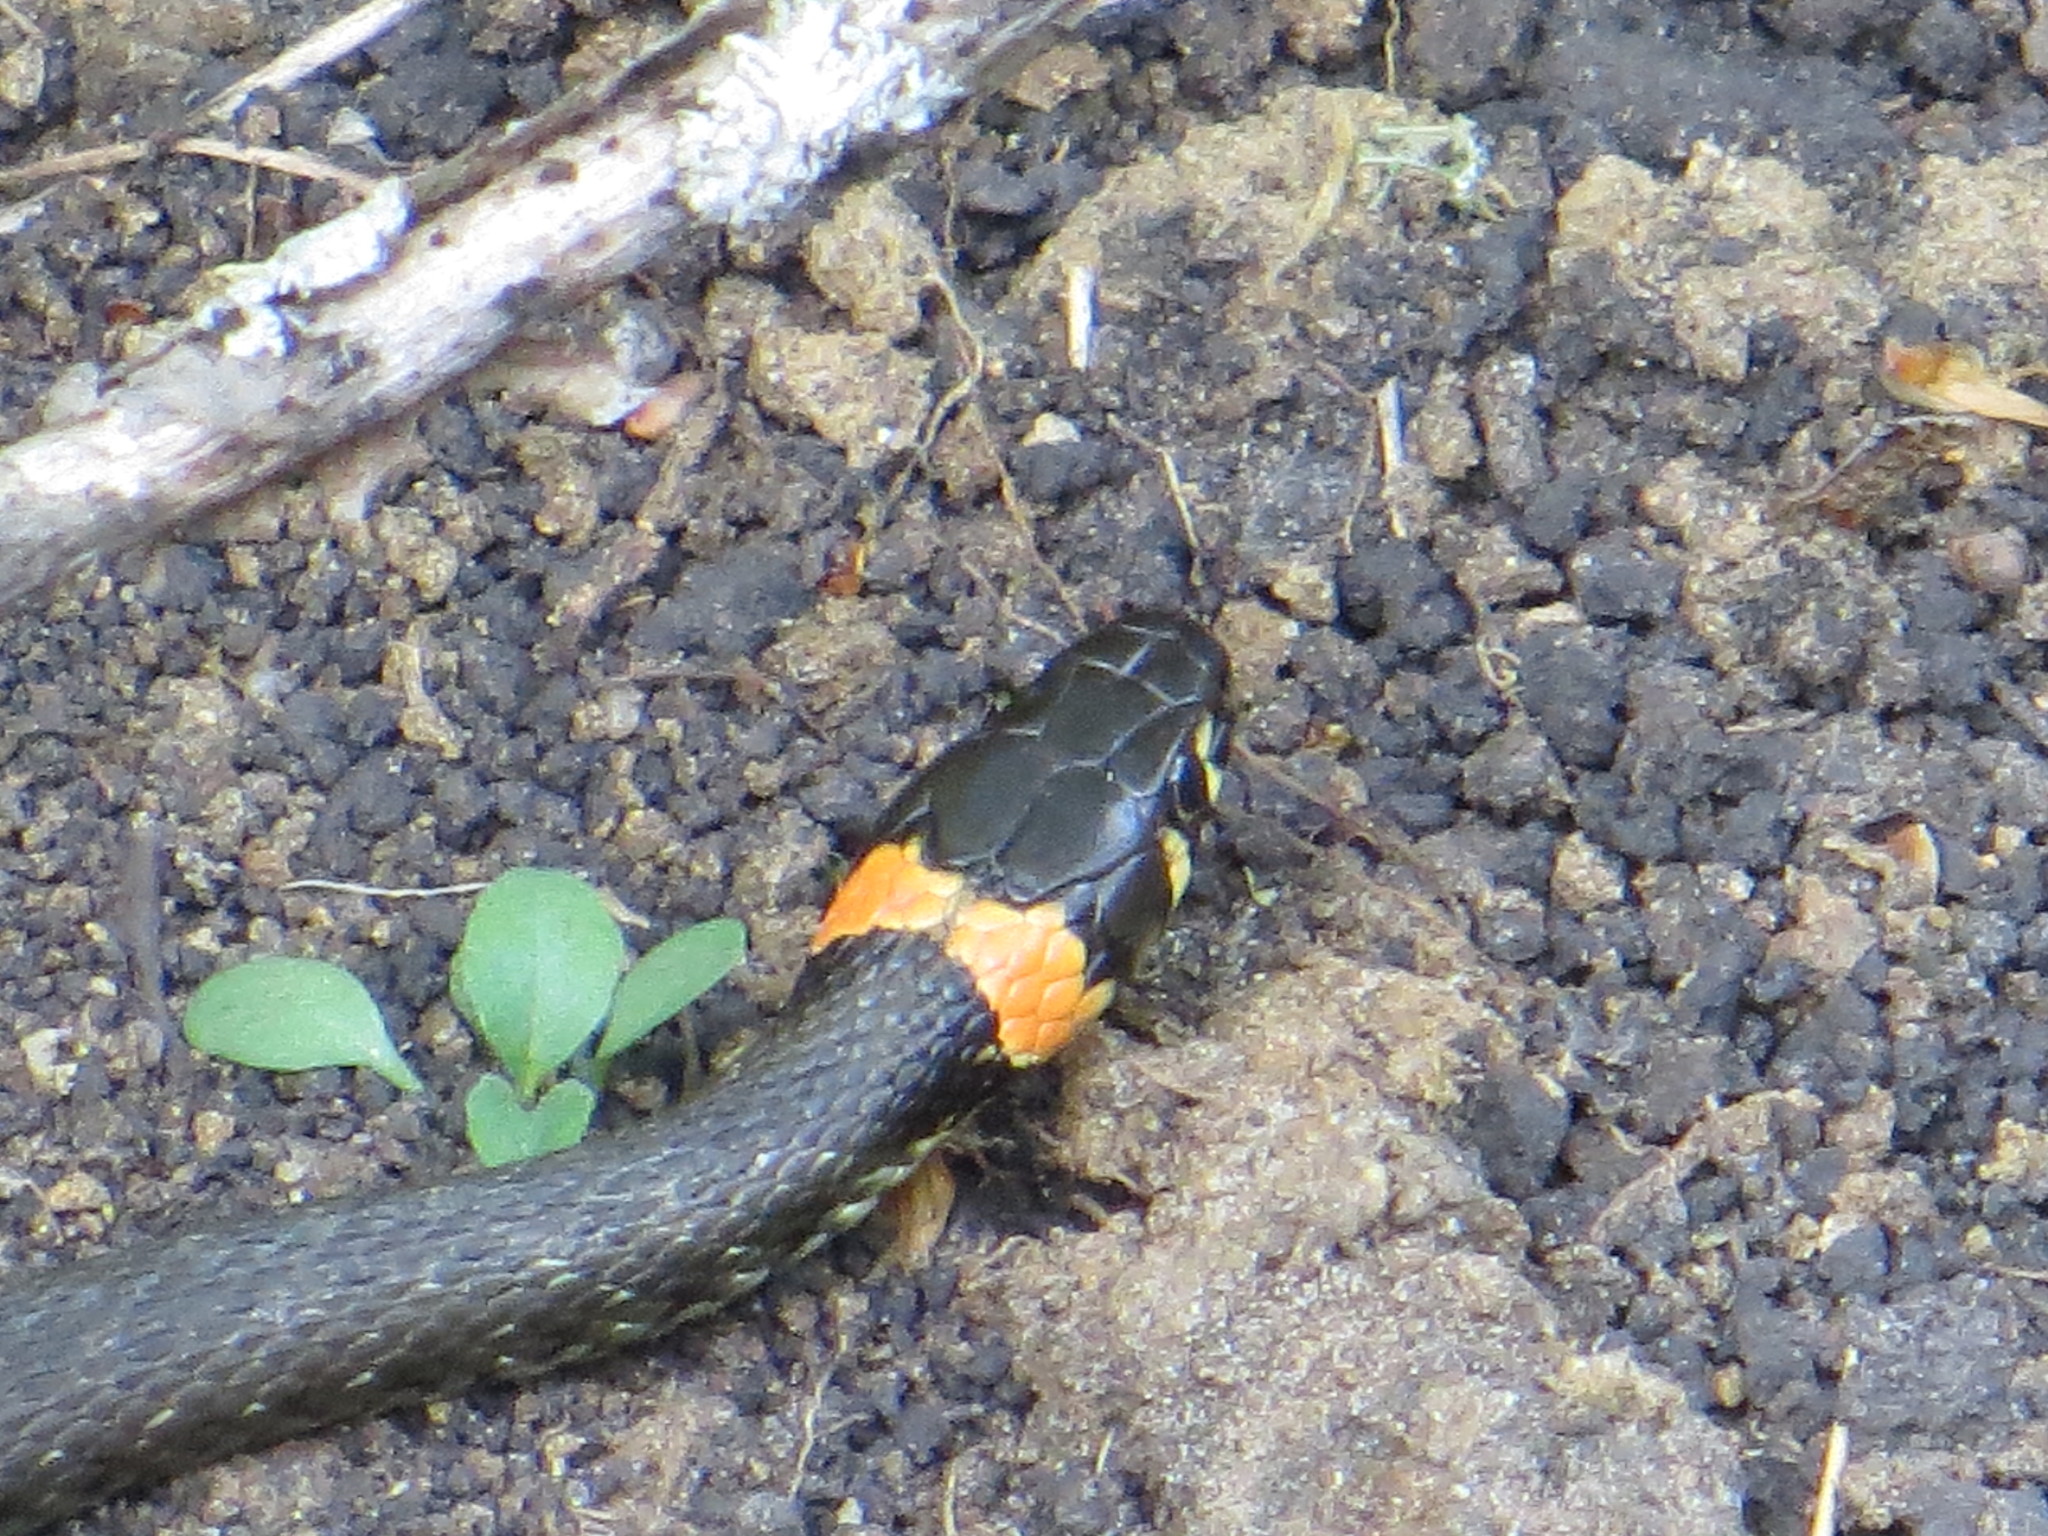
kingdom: Animalia
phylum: Chordata
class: Squamata
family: Colubridae
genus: Natrix
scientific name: Natrix natrix
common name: Grass snake
